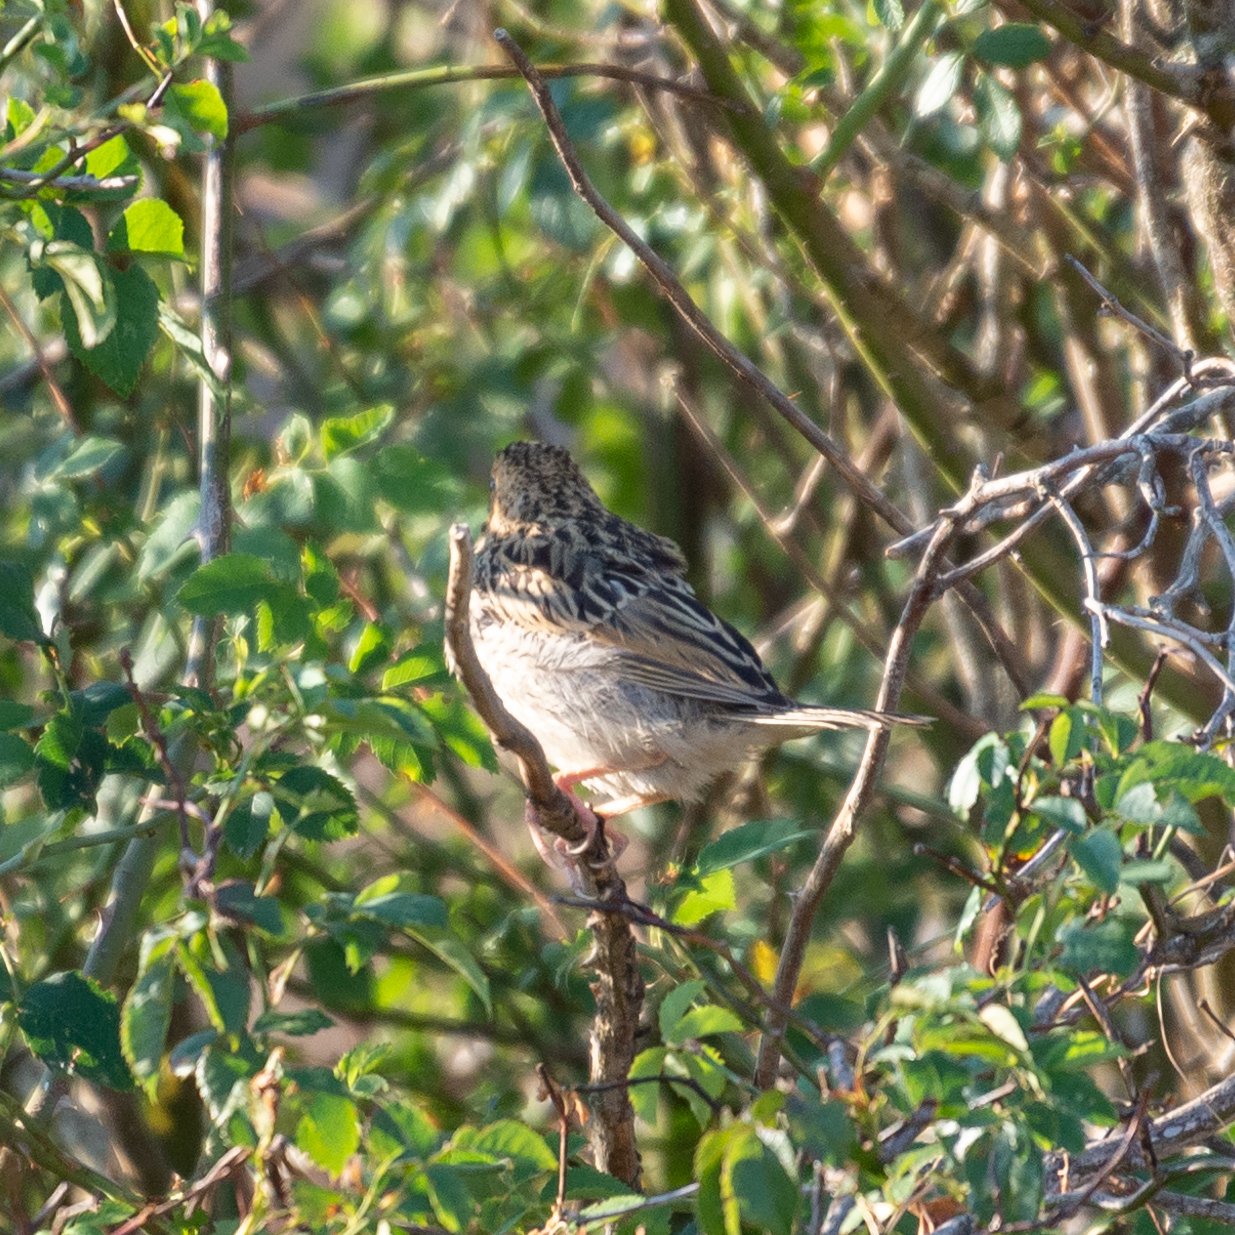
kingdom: Animalia
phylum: Chordata
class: Aves
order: Passeriformes
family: Emberizidae
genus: Emberiza
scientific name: Emberiza calandra
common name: Corn bunting
